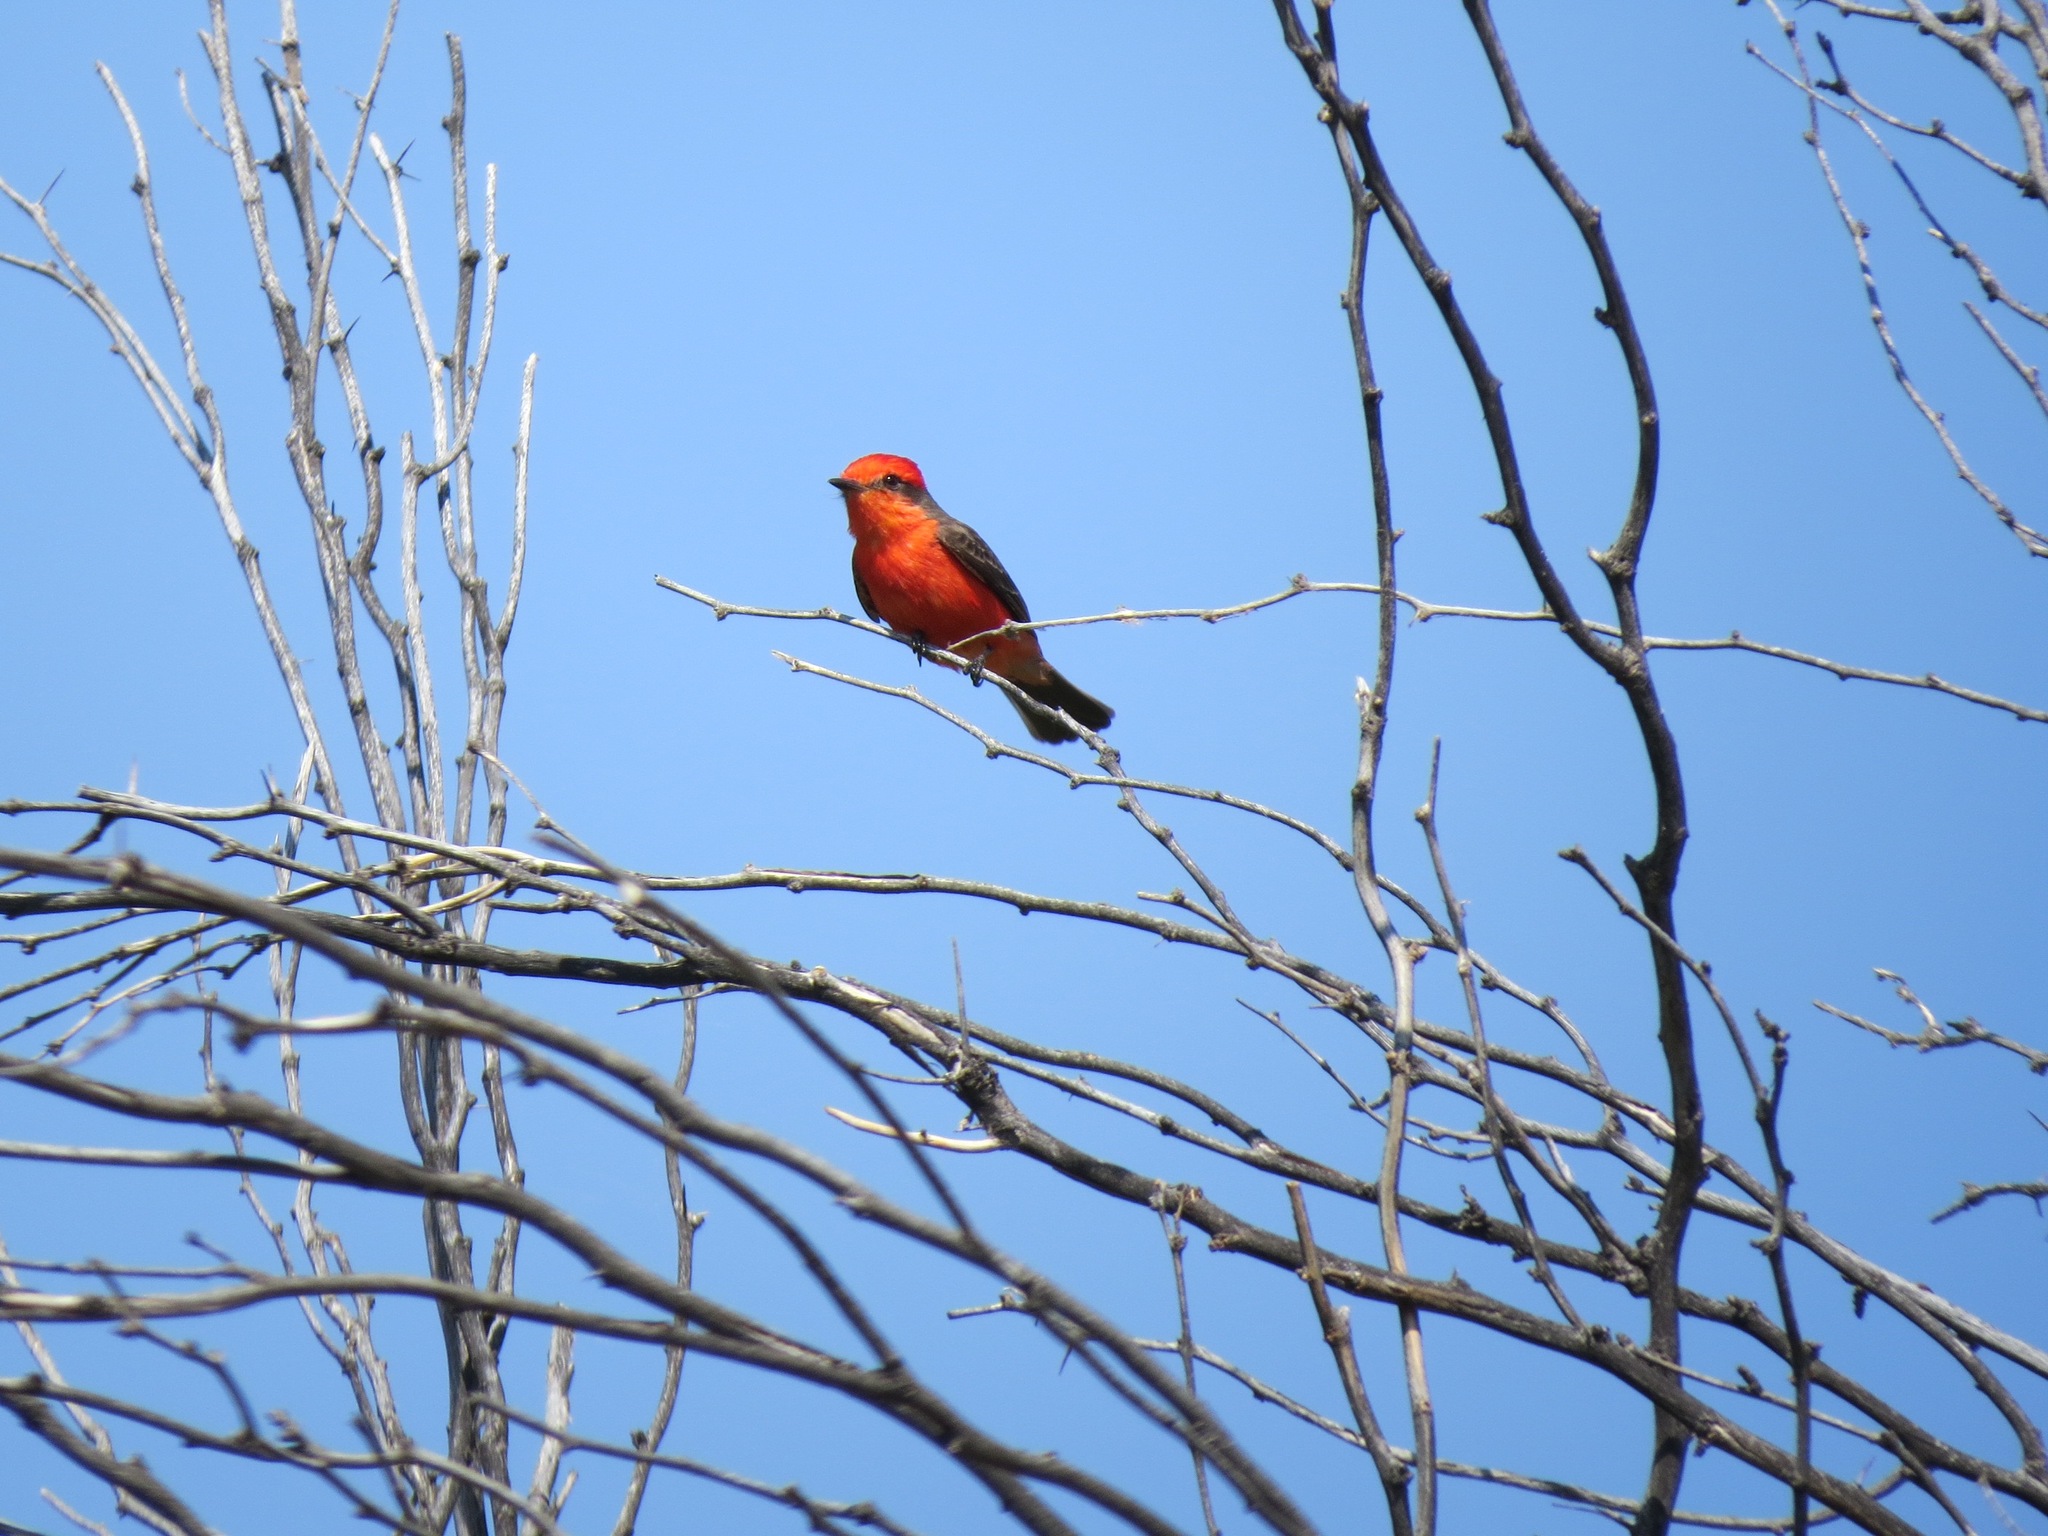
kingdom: Animalia
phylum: Chordata
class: Aves
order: Passeriformes
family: Tyrannidae
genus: Pyrocephalus
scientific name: Pyrocephalus rubinus
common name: Vermilion flycatcher
